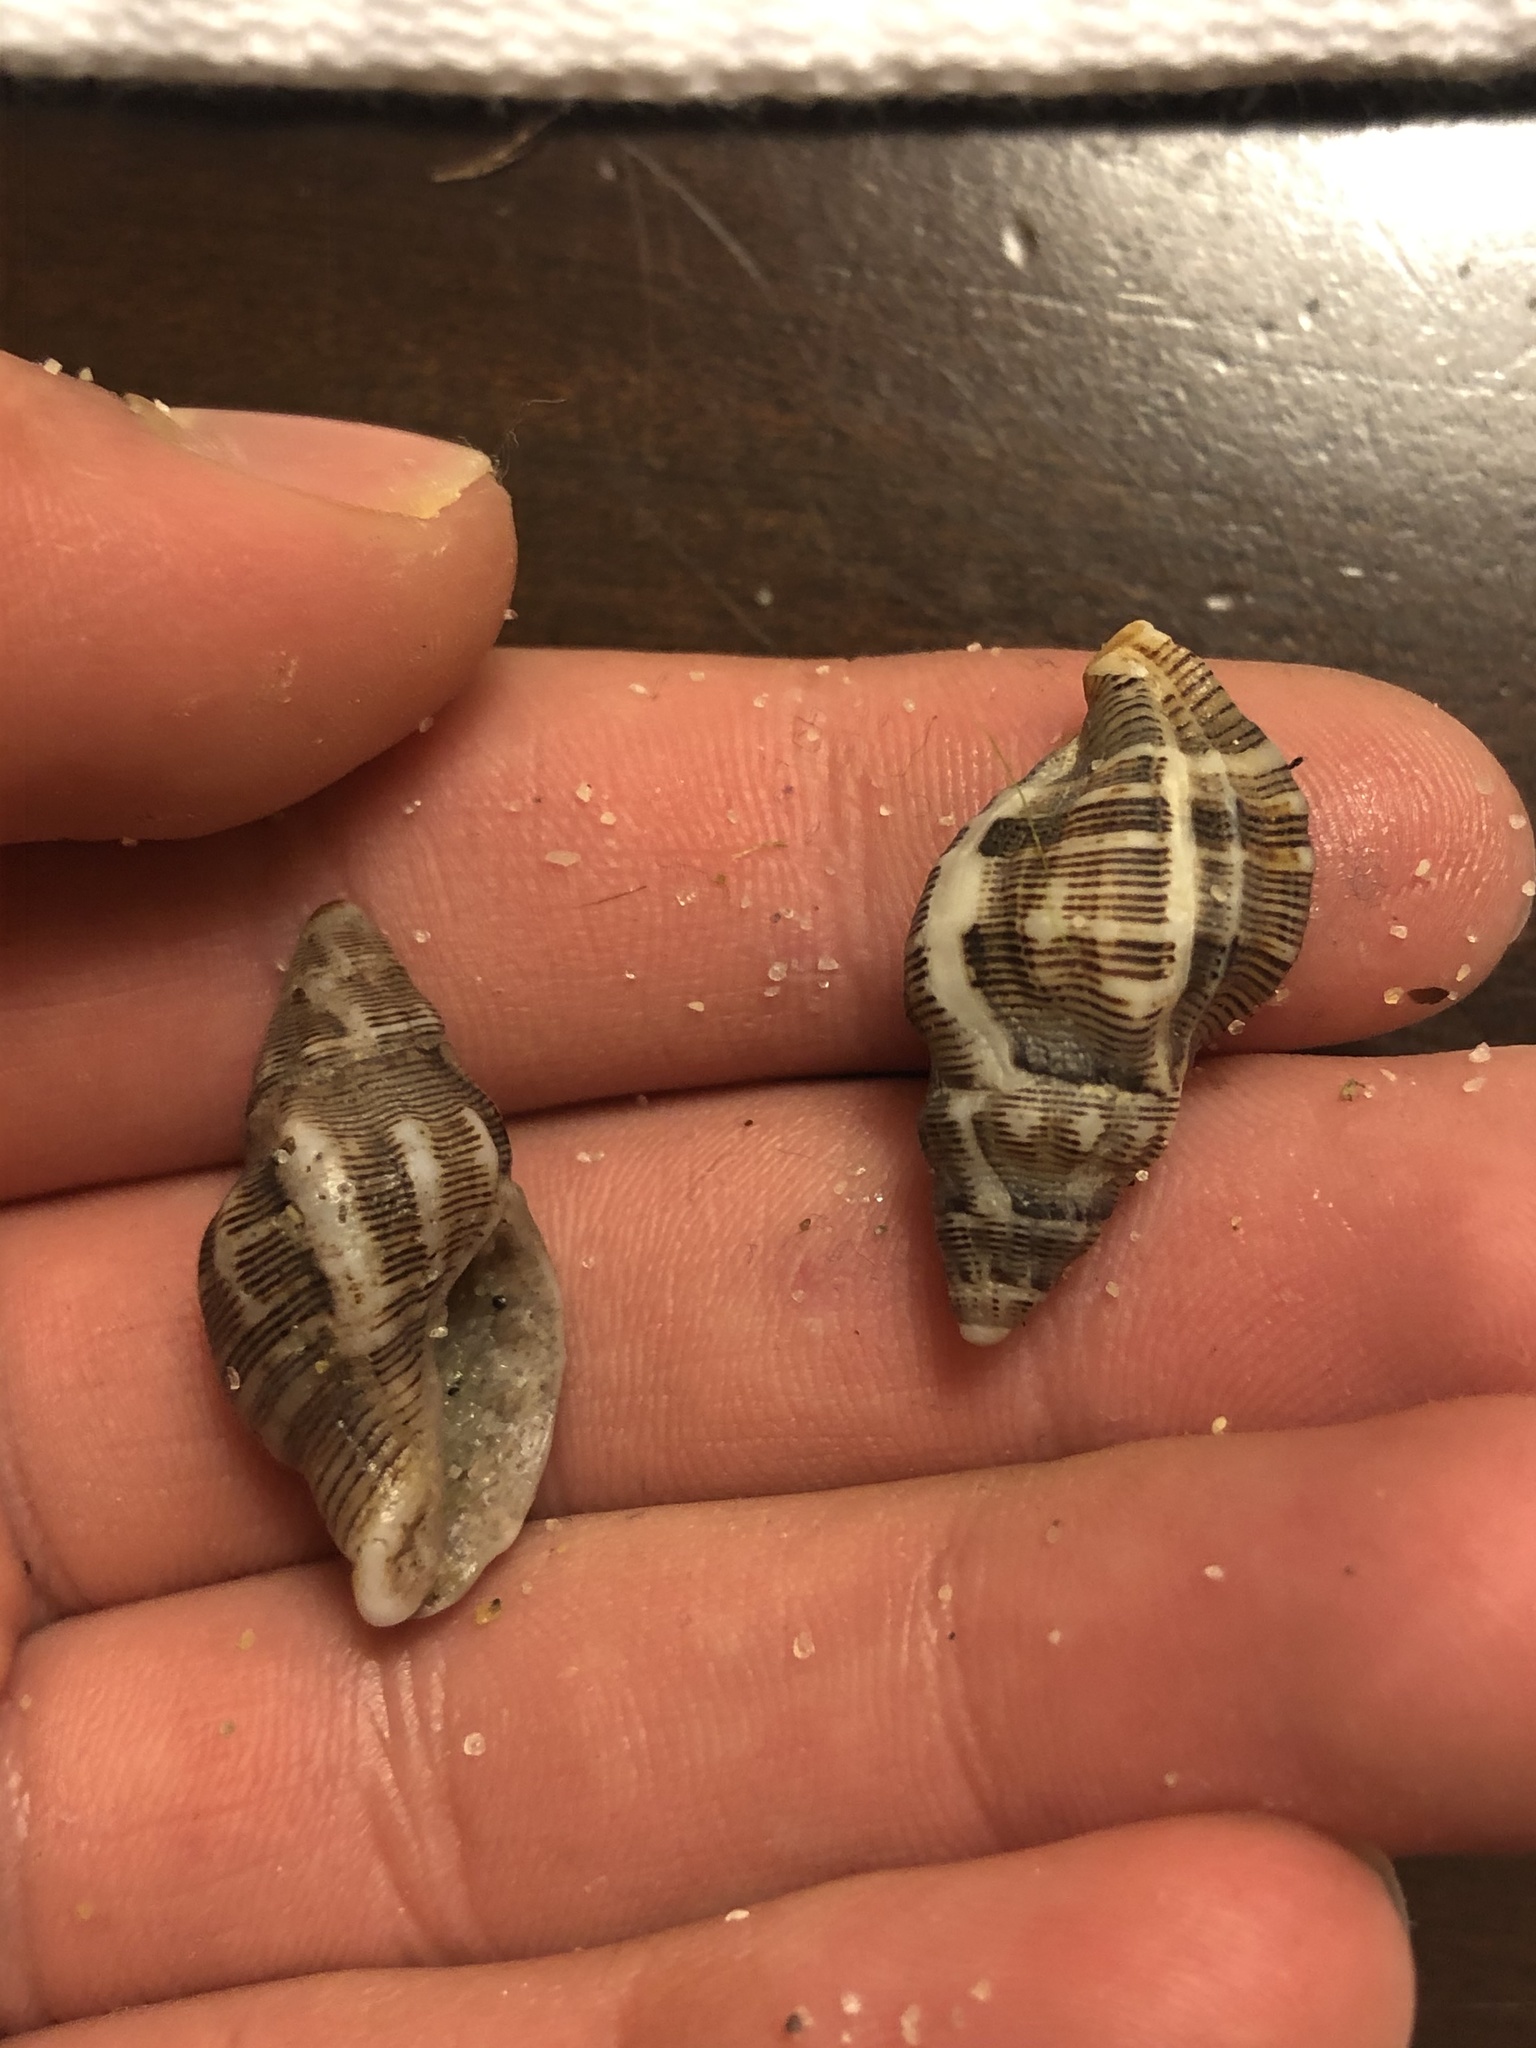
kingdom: Animalia
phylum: Mollusca
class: Gastropoda
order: Neogastropoda
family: Muricidae
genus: Roperia
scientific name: Roperia poulsoni
